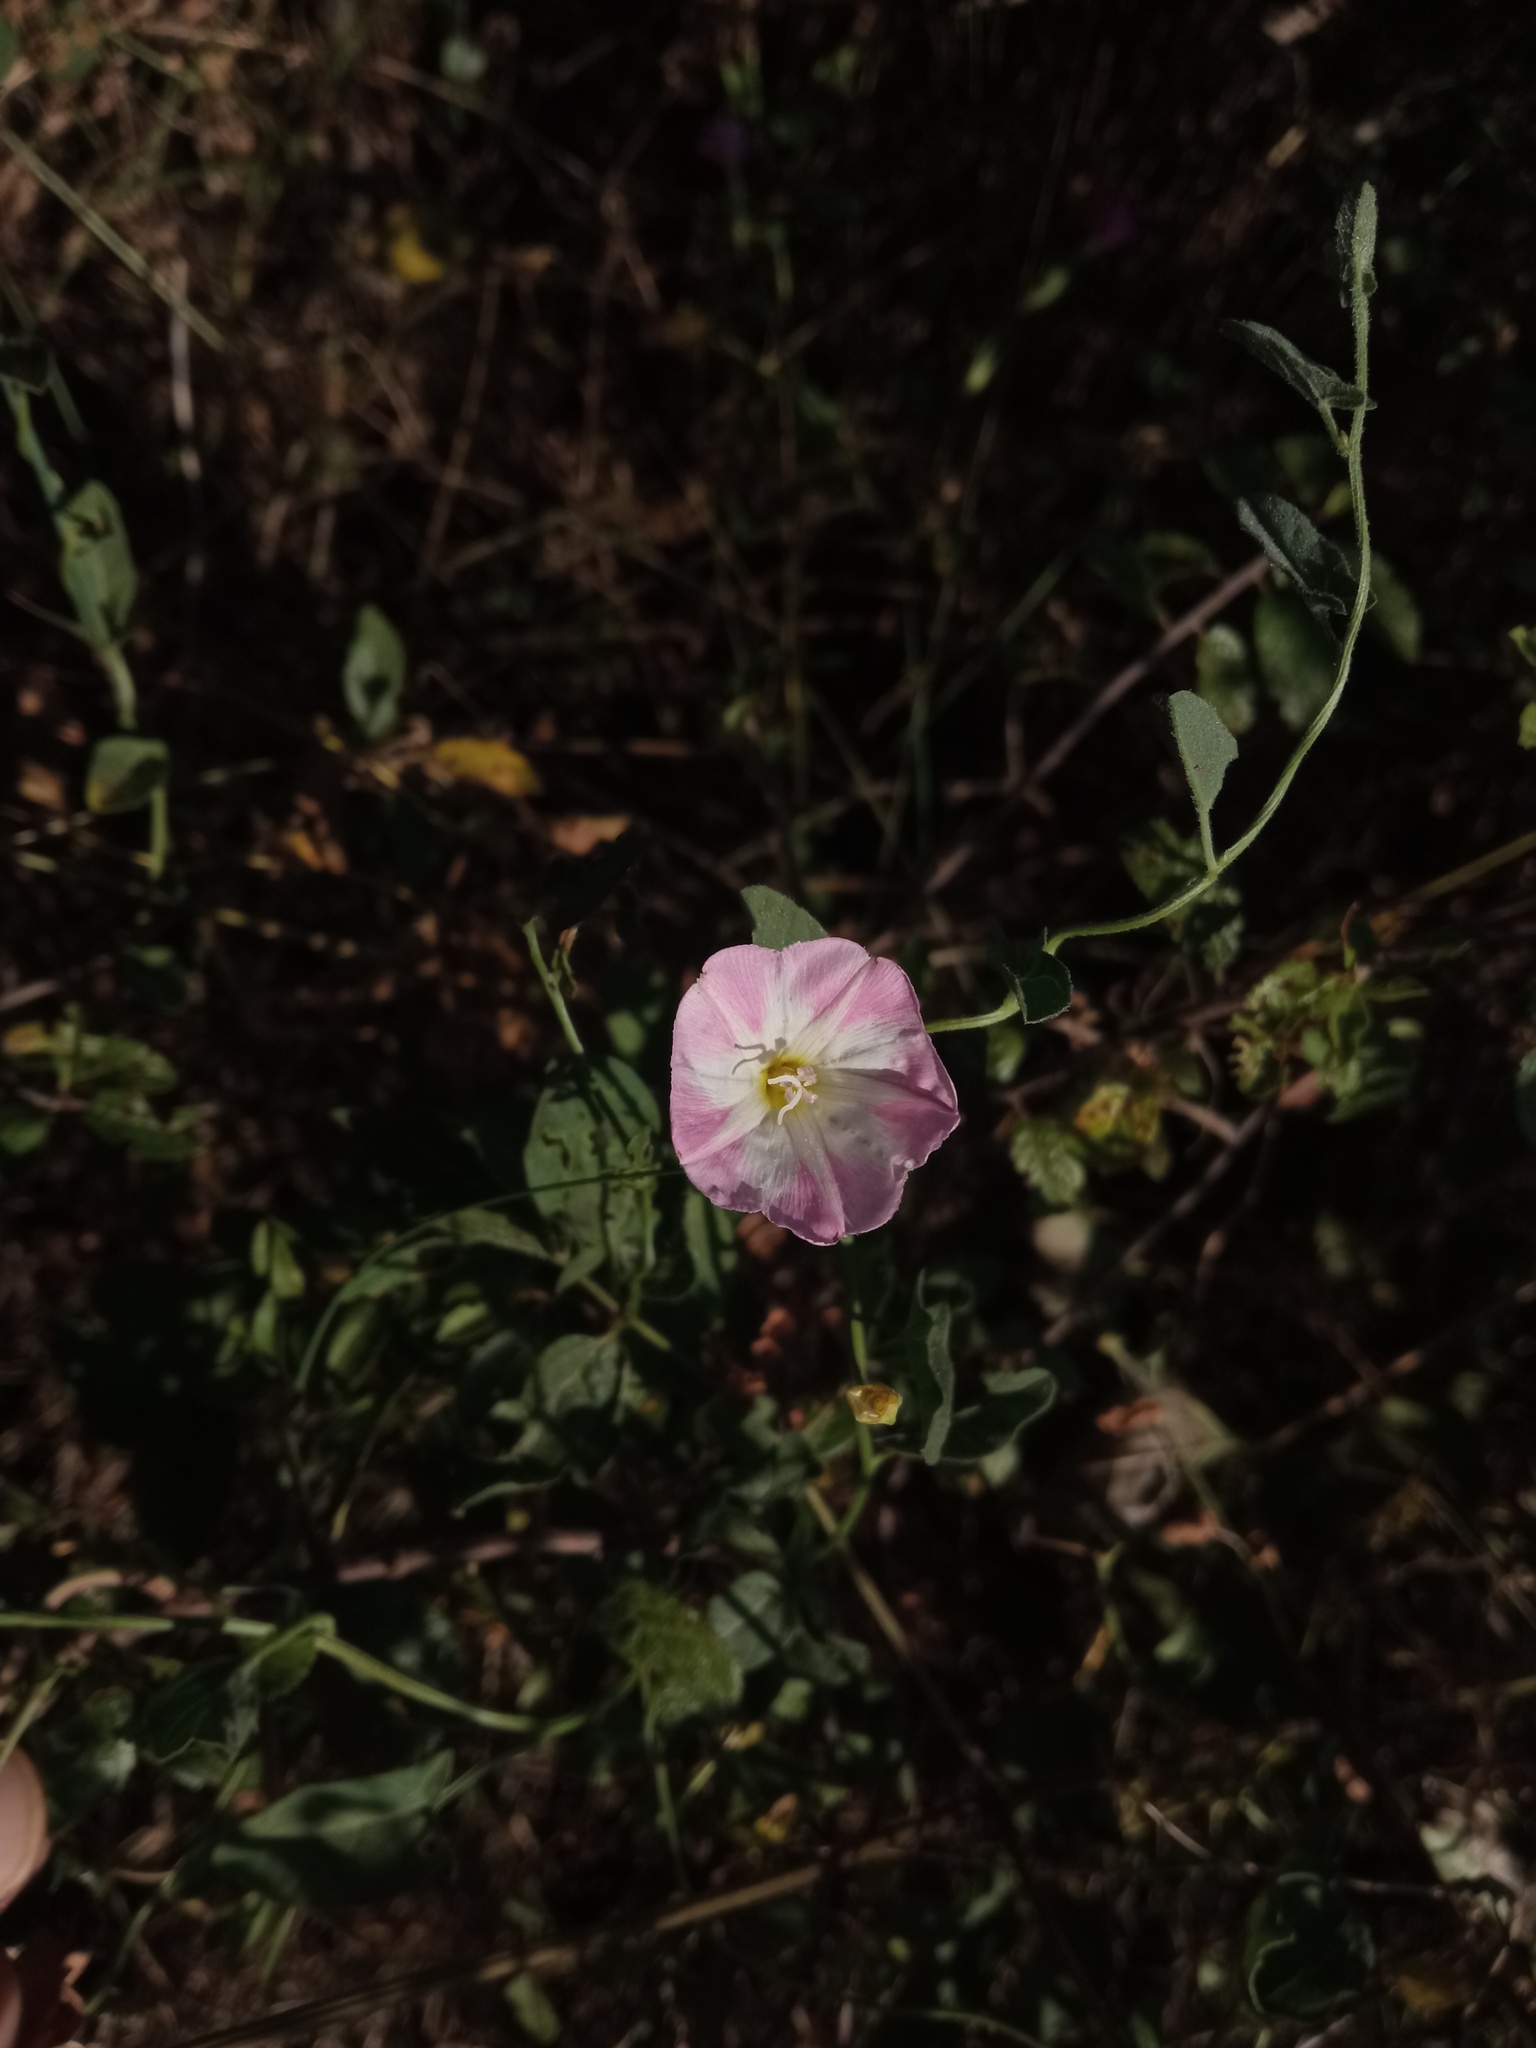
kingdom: Plantae
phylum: Tracheophyta
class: Magnoliopsida
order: Solanales
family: Convolvulaceae
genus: Convolvulus
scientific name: Convolvulus arvensis
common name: Field bindweed
